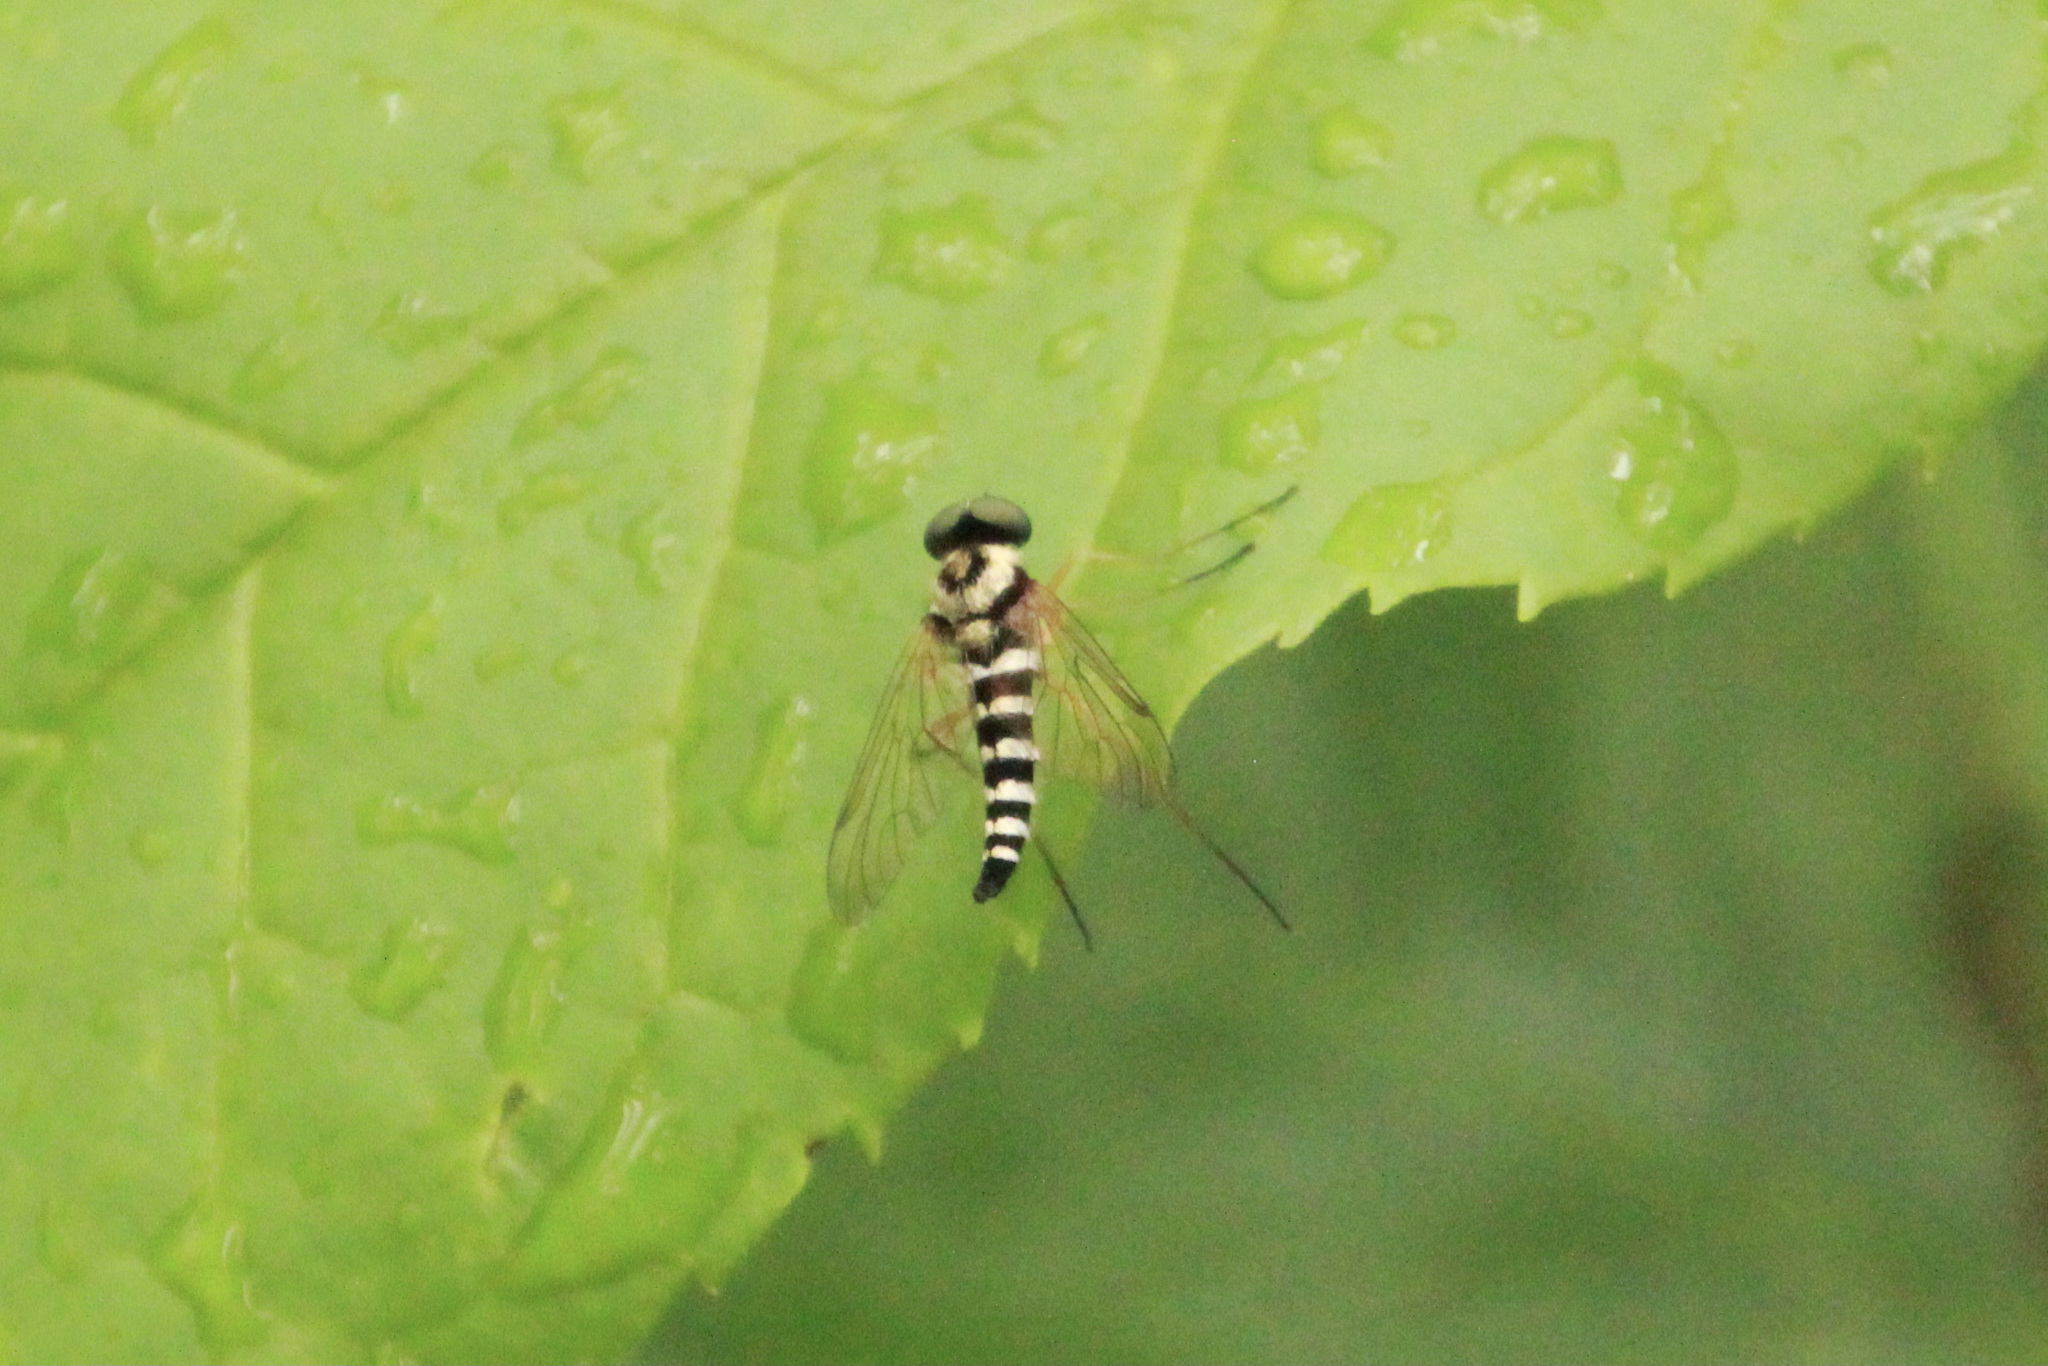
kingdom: Animalia
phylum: Arthropoda
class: Insecta
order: Diptera
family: Rhagionidae
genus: Chrysopilus
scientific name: Chrysopilus ornatus
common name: Ornate snipe fly
